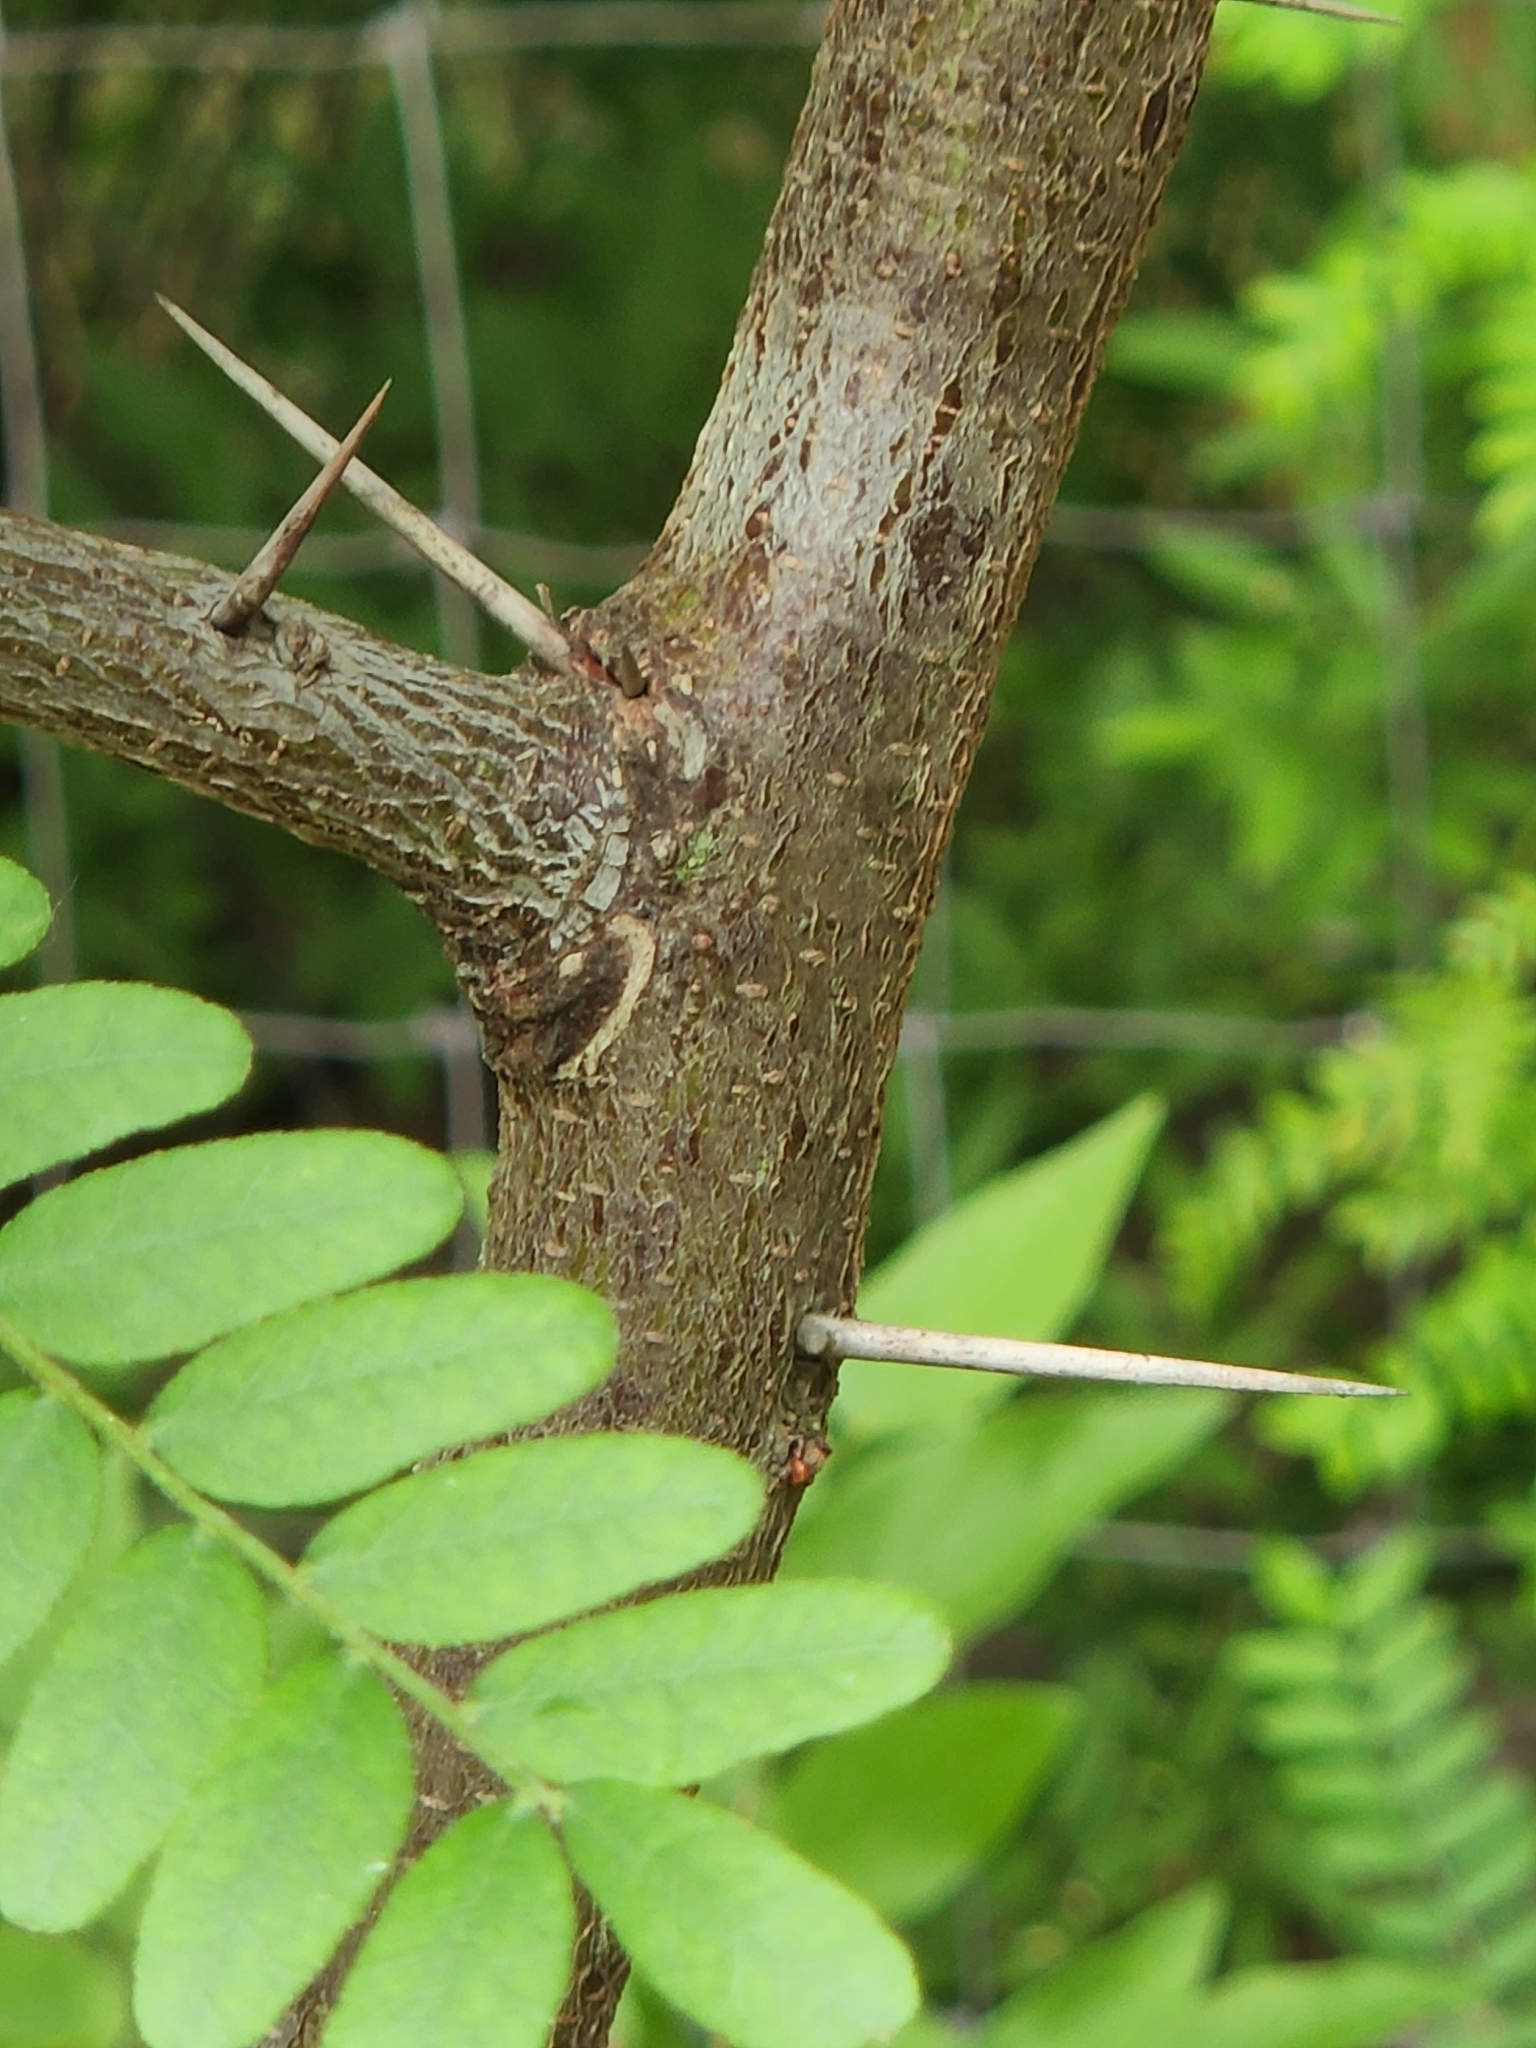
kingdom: Plantae
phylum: Tracheophyta
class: Magnoliopsida
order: Fabales
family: Fabaceae
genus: Gleditsia
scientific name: Gleditsia triacanthos
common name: Common honeylocust
